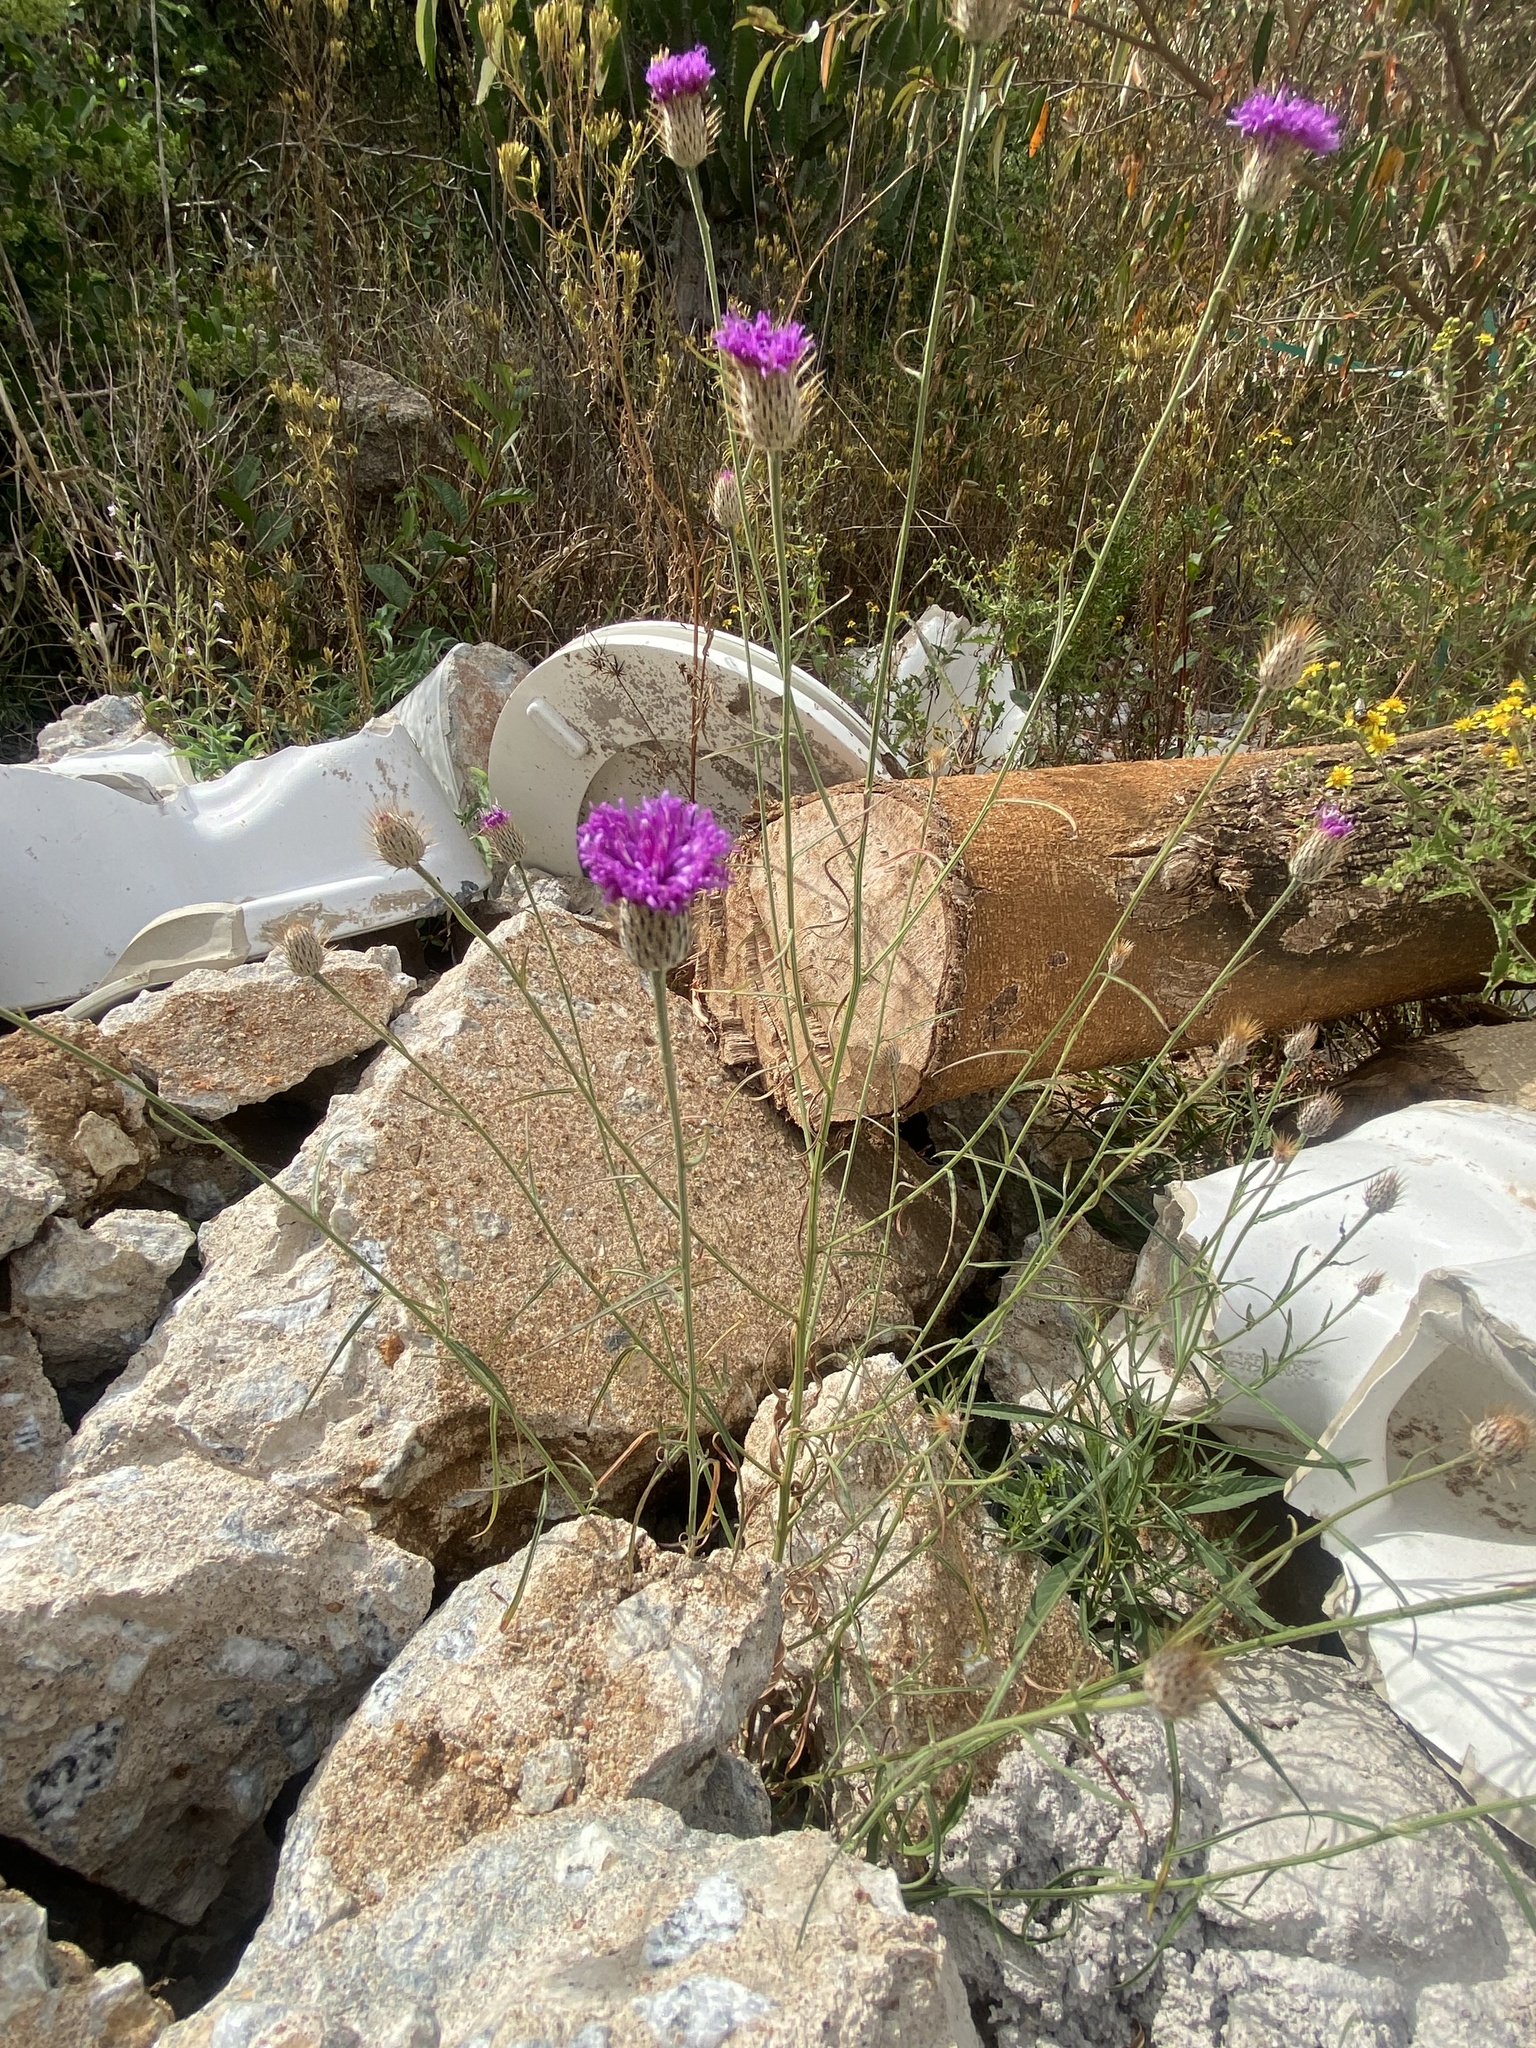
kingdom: Plantae
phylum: Tracheophyta
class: Magnoliopsida
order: Asterales
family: Asteraceae
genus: Parapolydora
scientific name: Parapolydora fastigiata
